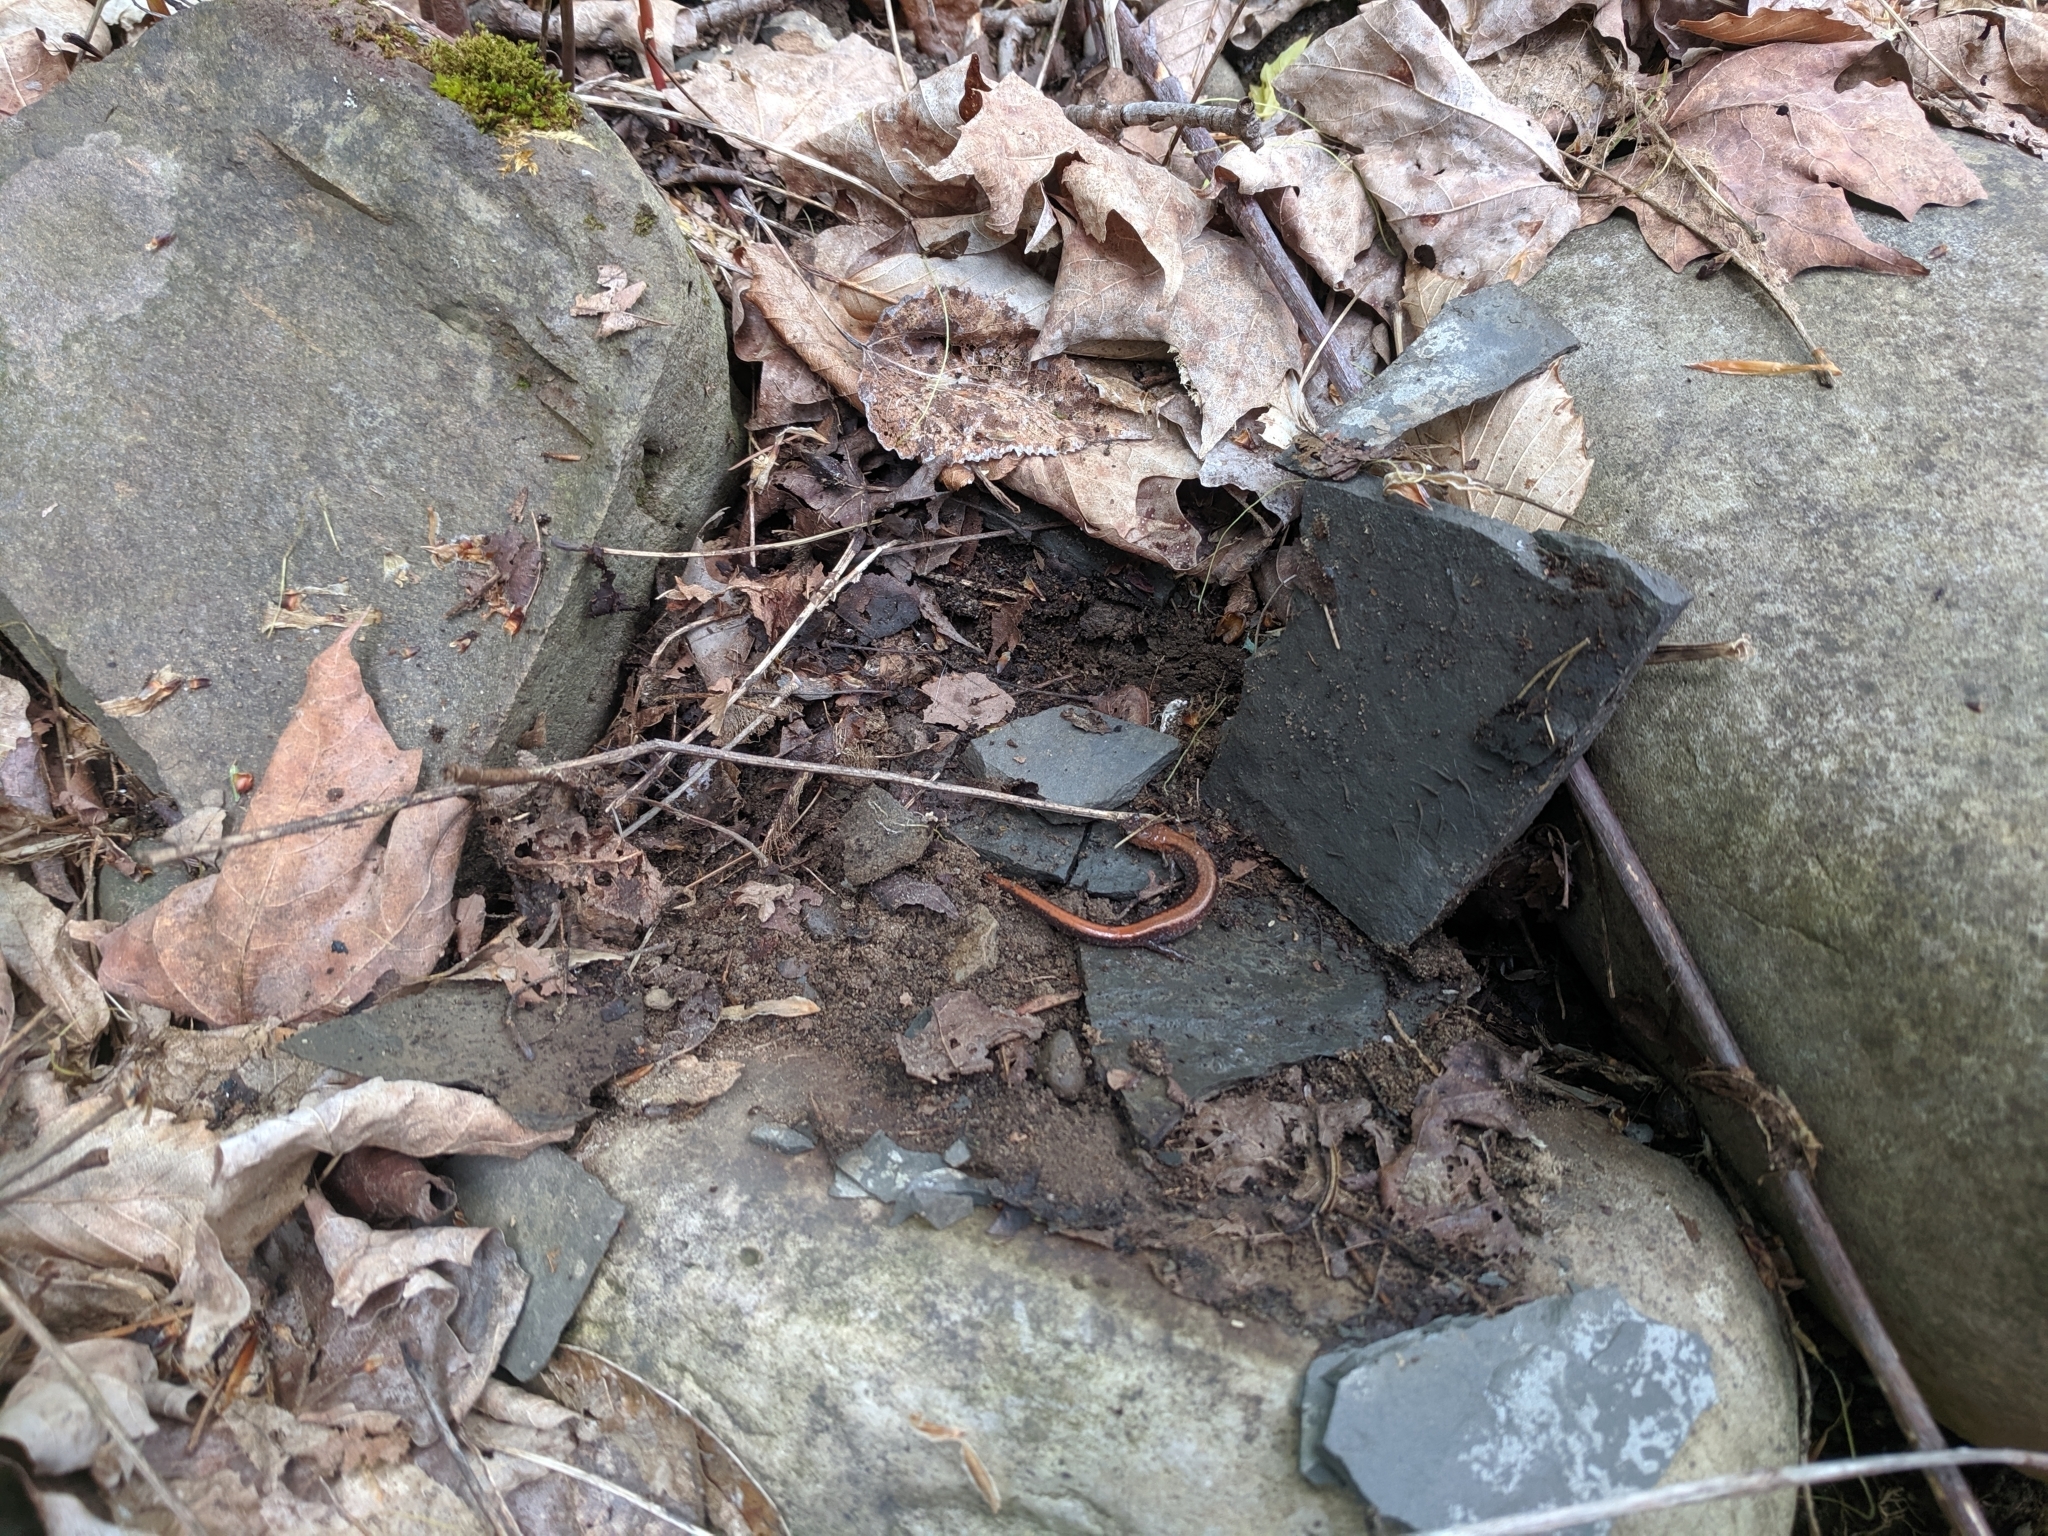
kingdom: Animalia
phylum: Chordata
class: Amphibia
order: Caudata
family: Plethodontidae
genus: Plethodon
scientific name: Plethodon cinereus
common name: Redback salamander
